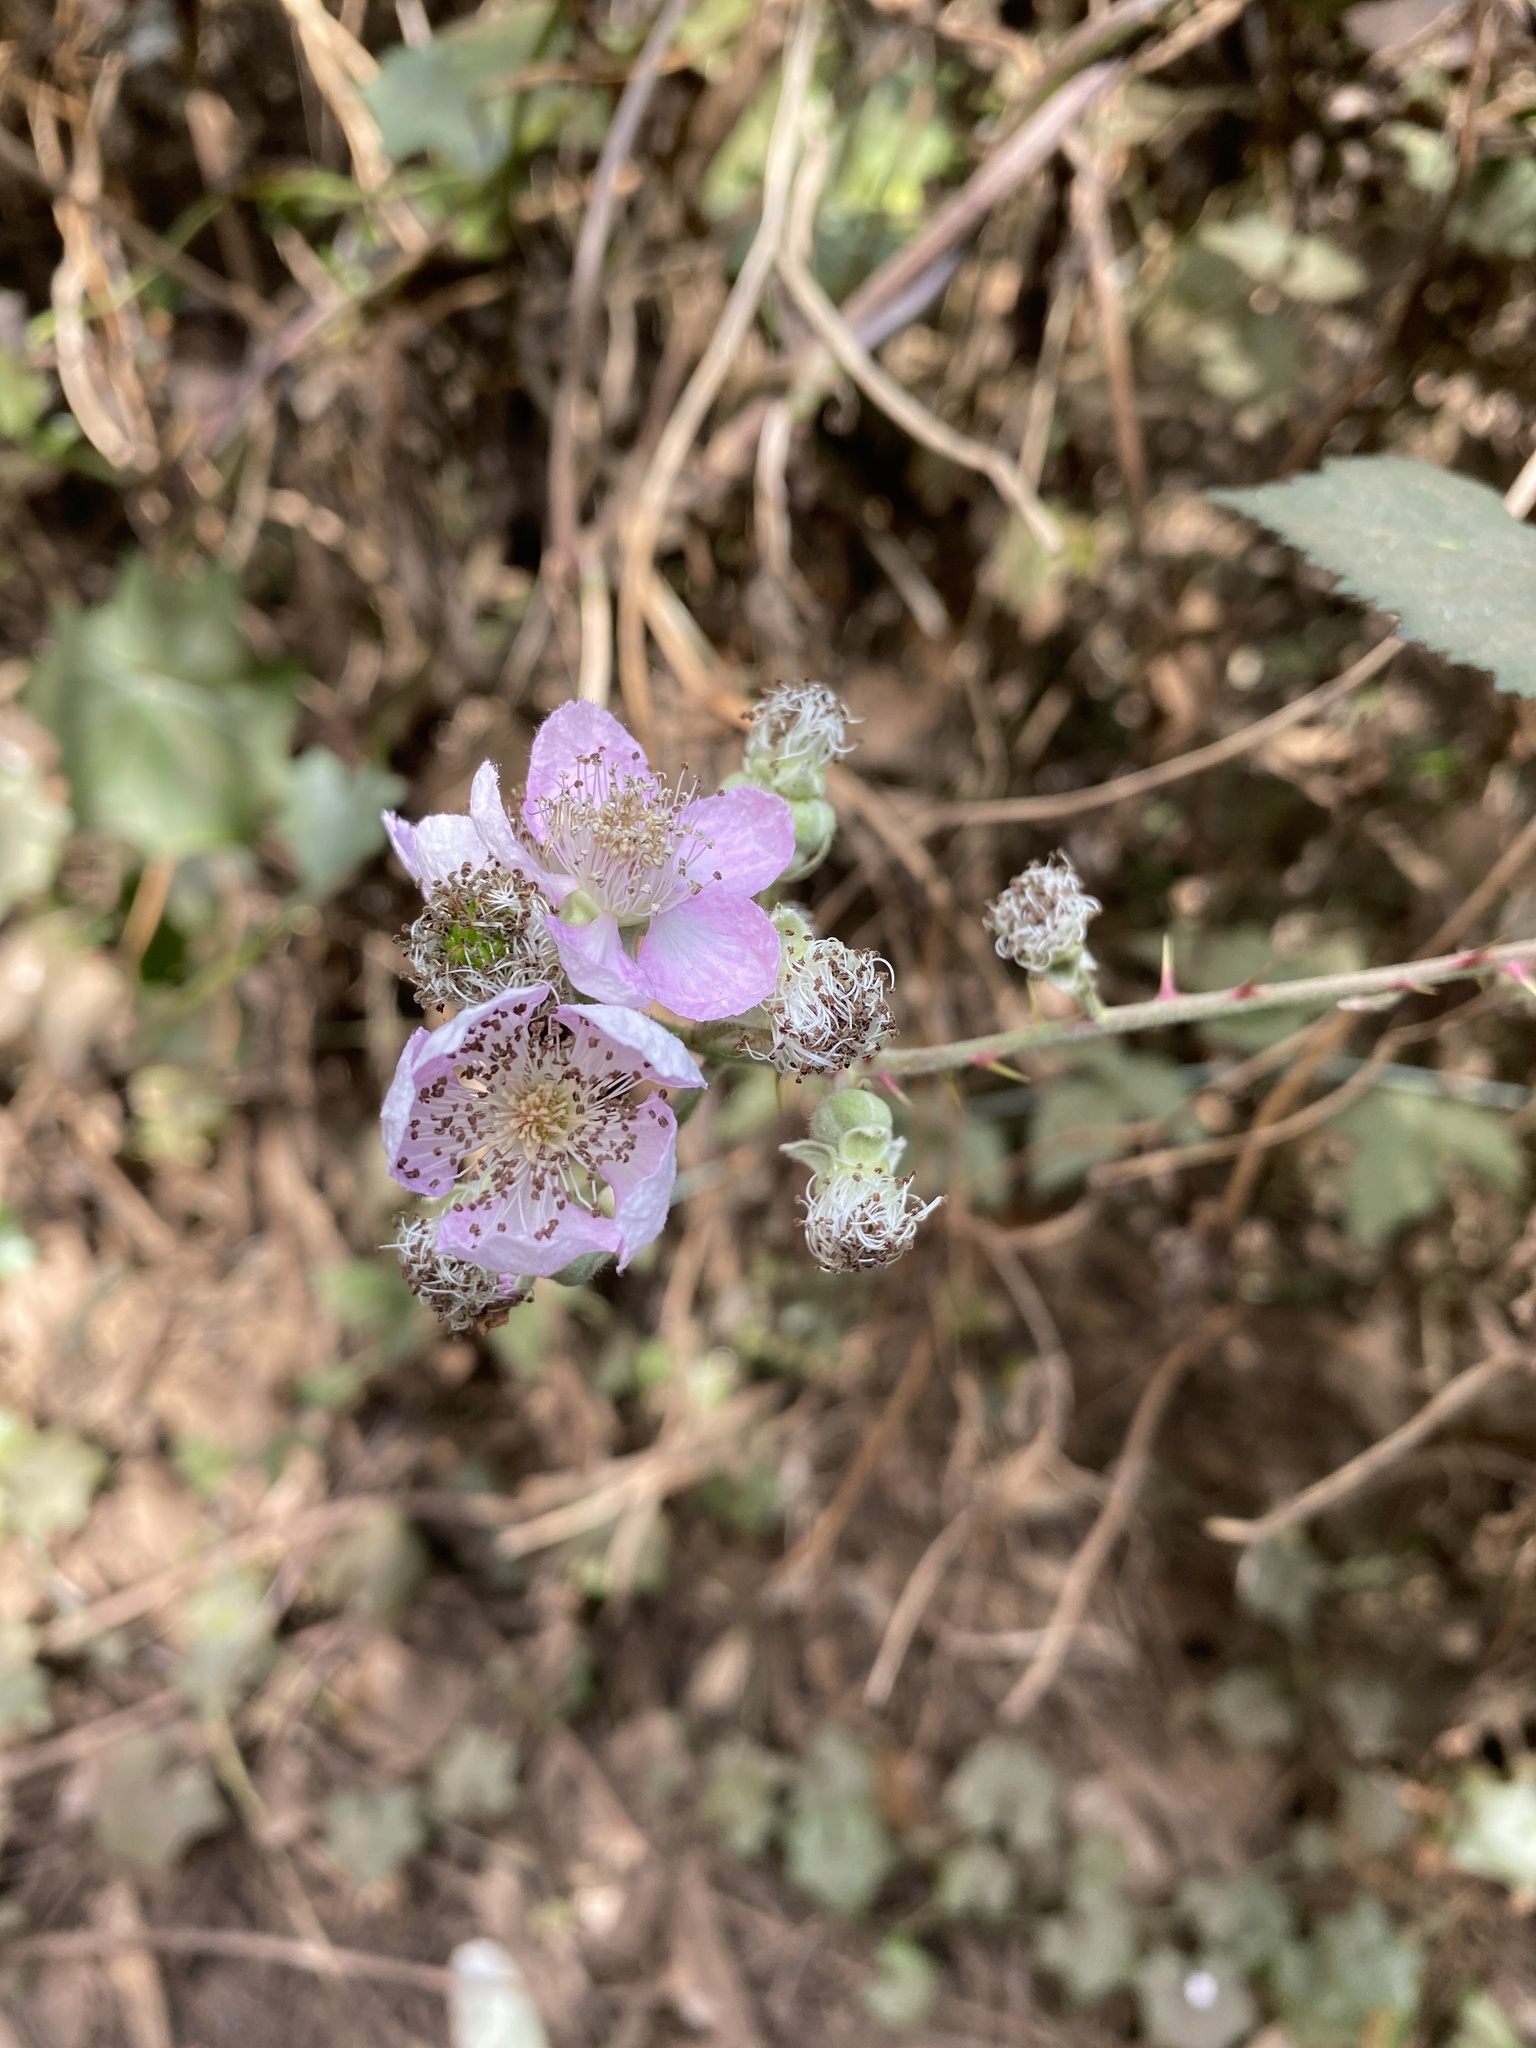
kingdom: Plantae
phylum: Tracheophyta
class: Magnoliopsida
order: Rosales
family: Rosaceae
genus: Rubus
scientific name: Rubus armeniacus
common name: Himalayan blackberry
